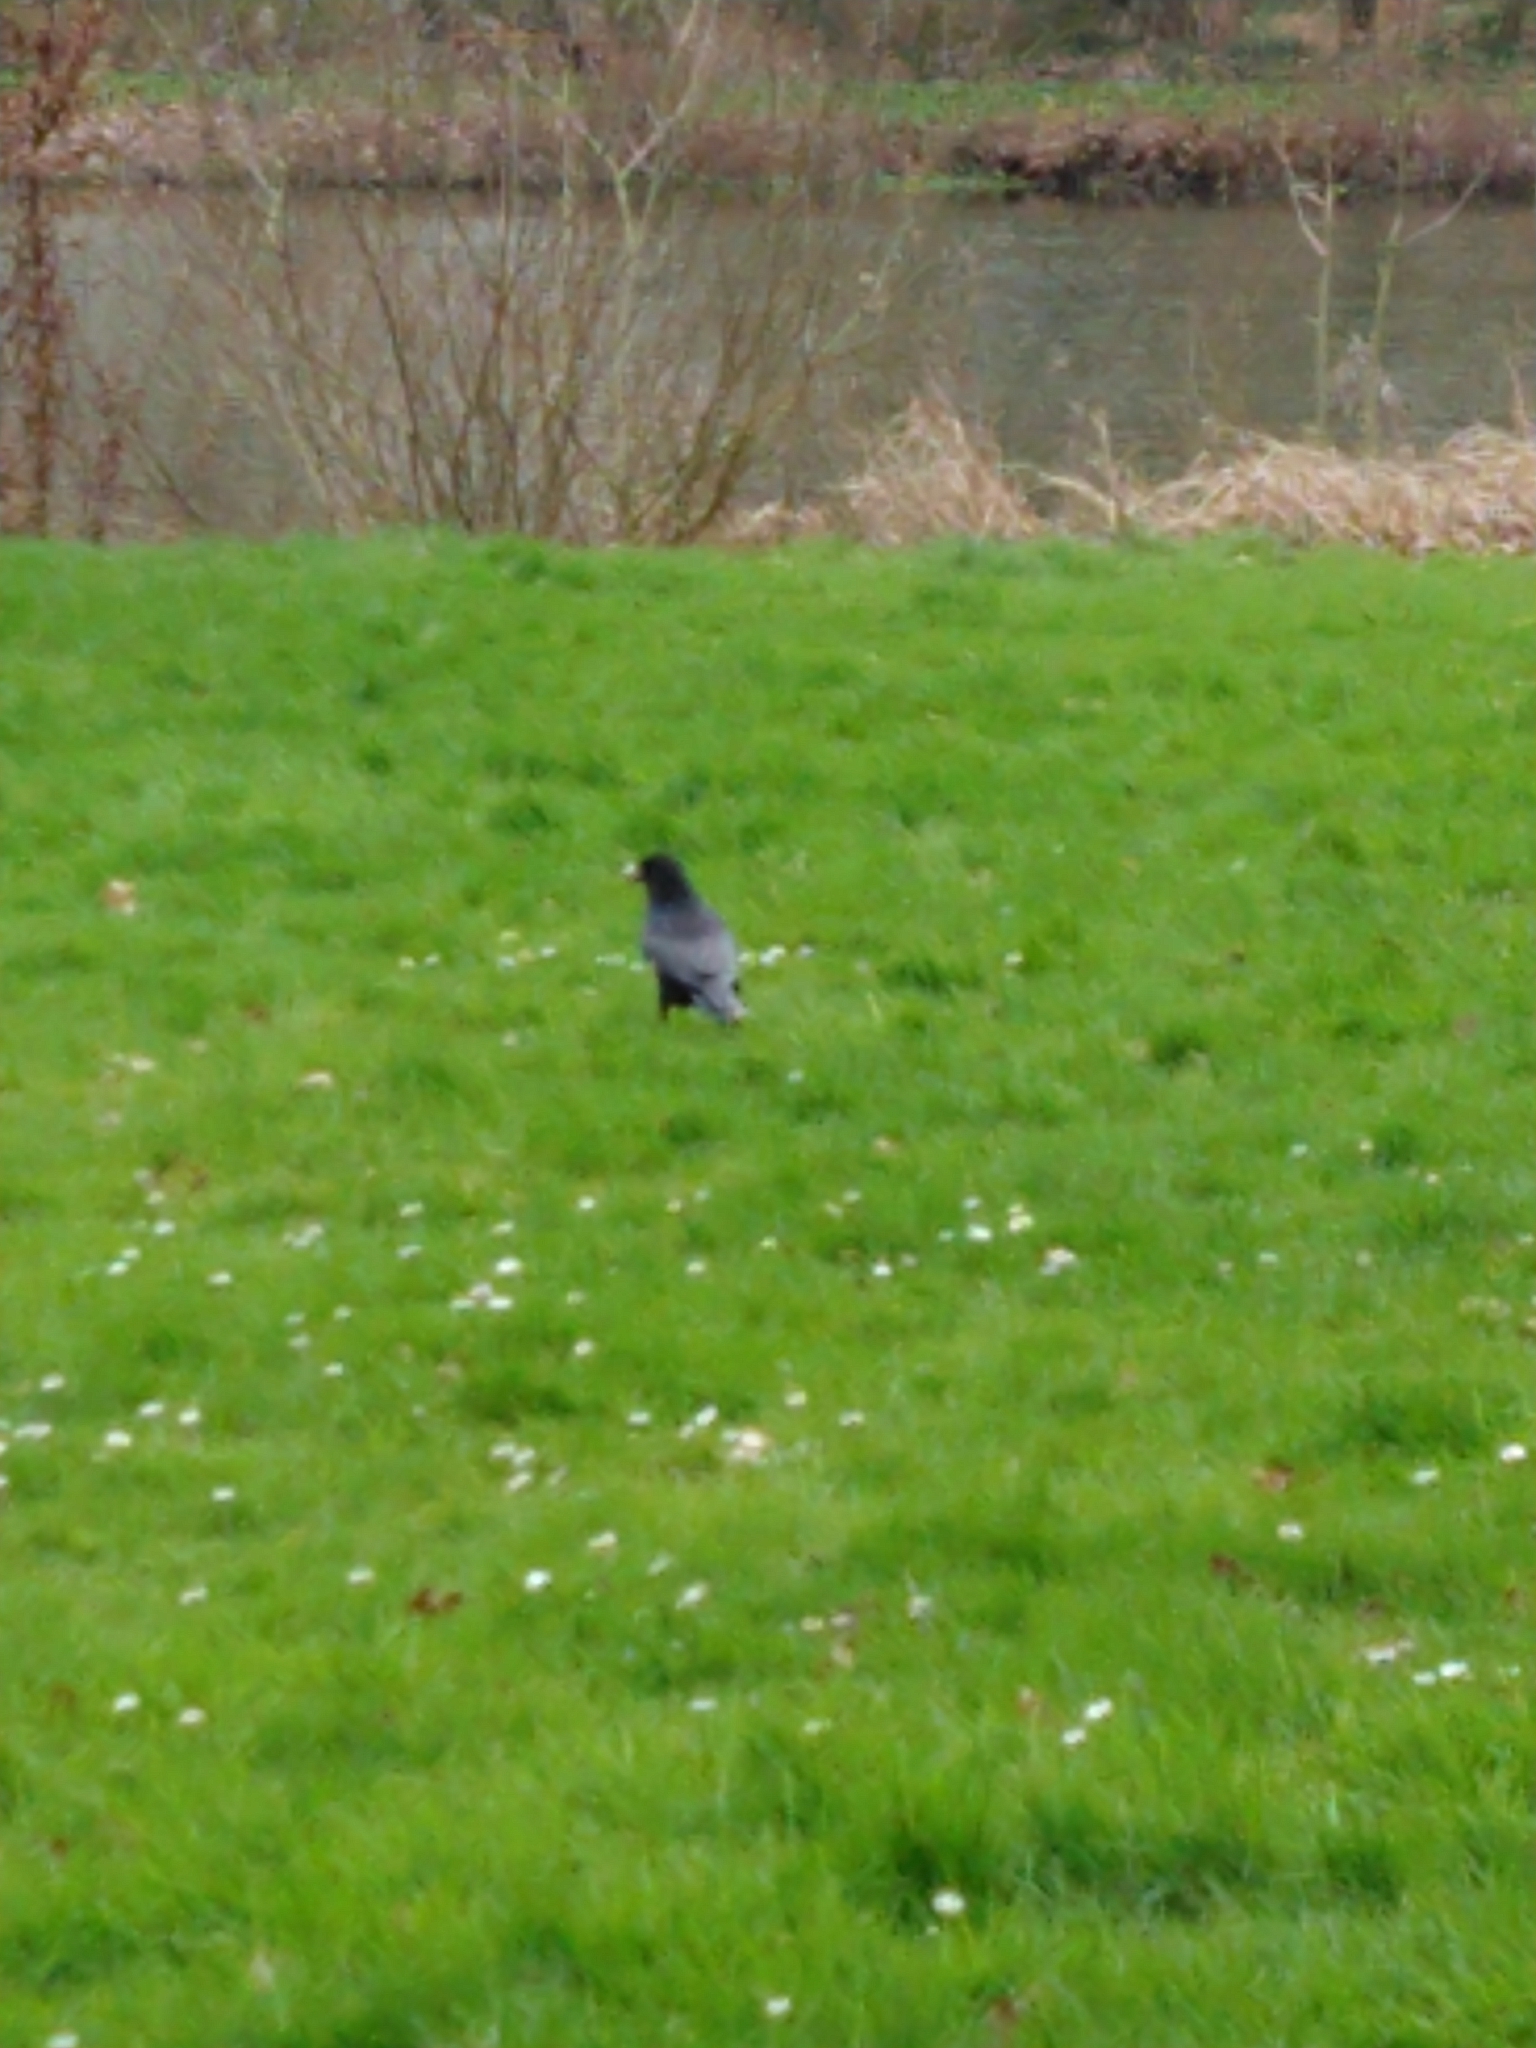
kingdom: Animalia
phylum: Chordata
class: Aves
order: Passeriformes
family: Corvidae
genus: Corvus
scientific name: Corvus corone
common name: Carrion crow
